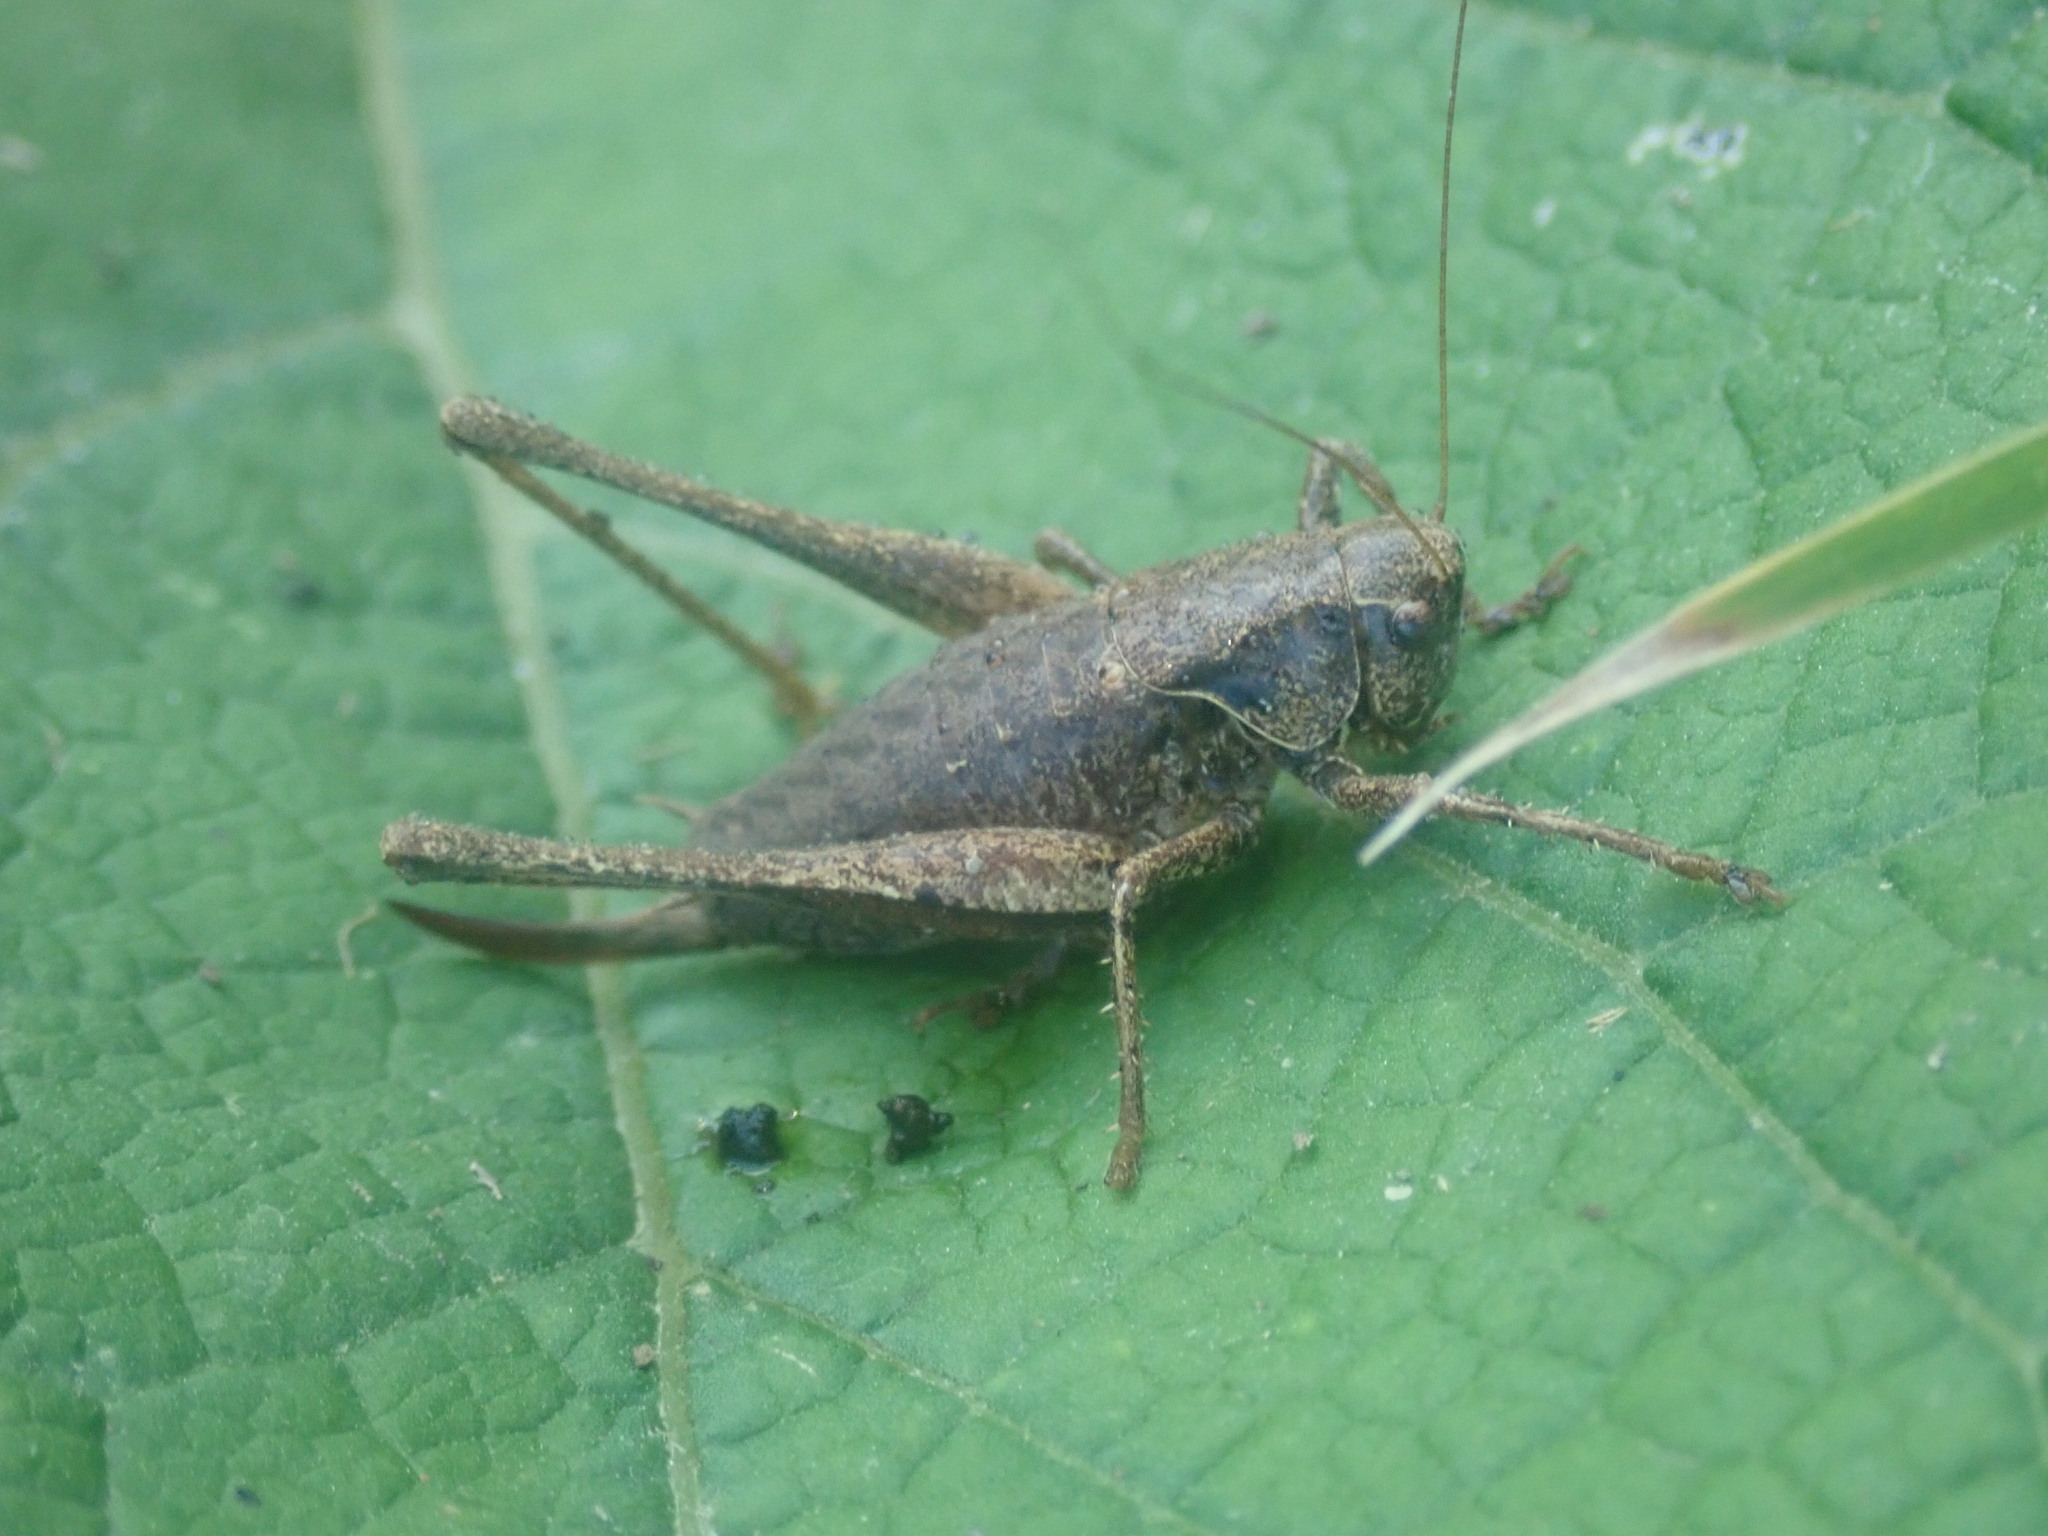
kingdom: Animalia
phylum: Arthropoda
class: Insecta
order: Orthoptera
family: Tettigoniidae
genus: Pholidoptera
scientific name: Pholidoptera griseoaptera
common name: Dark bush-cricket
